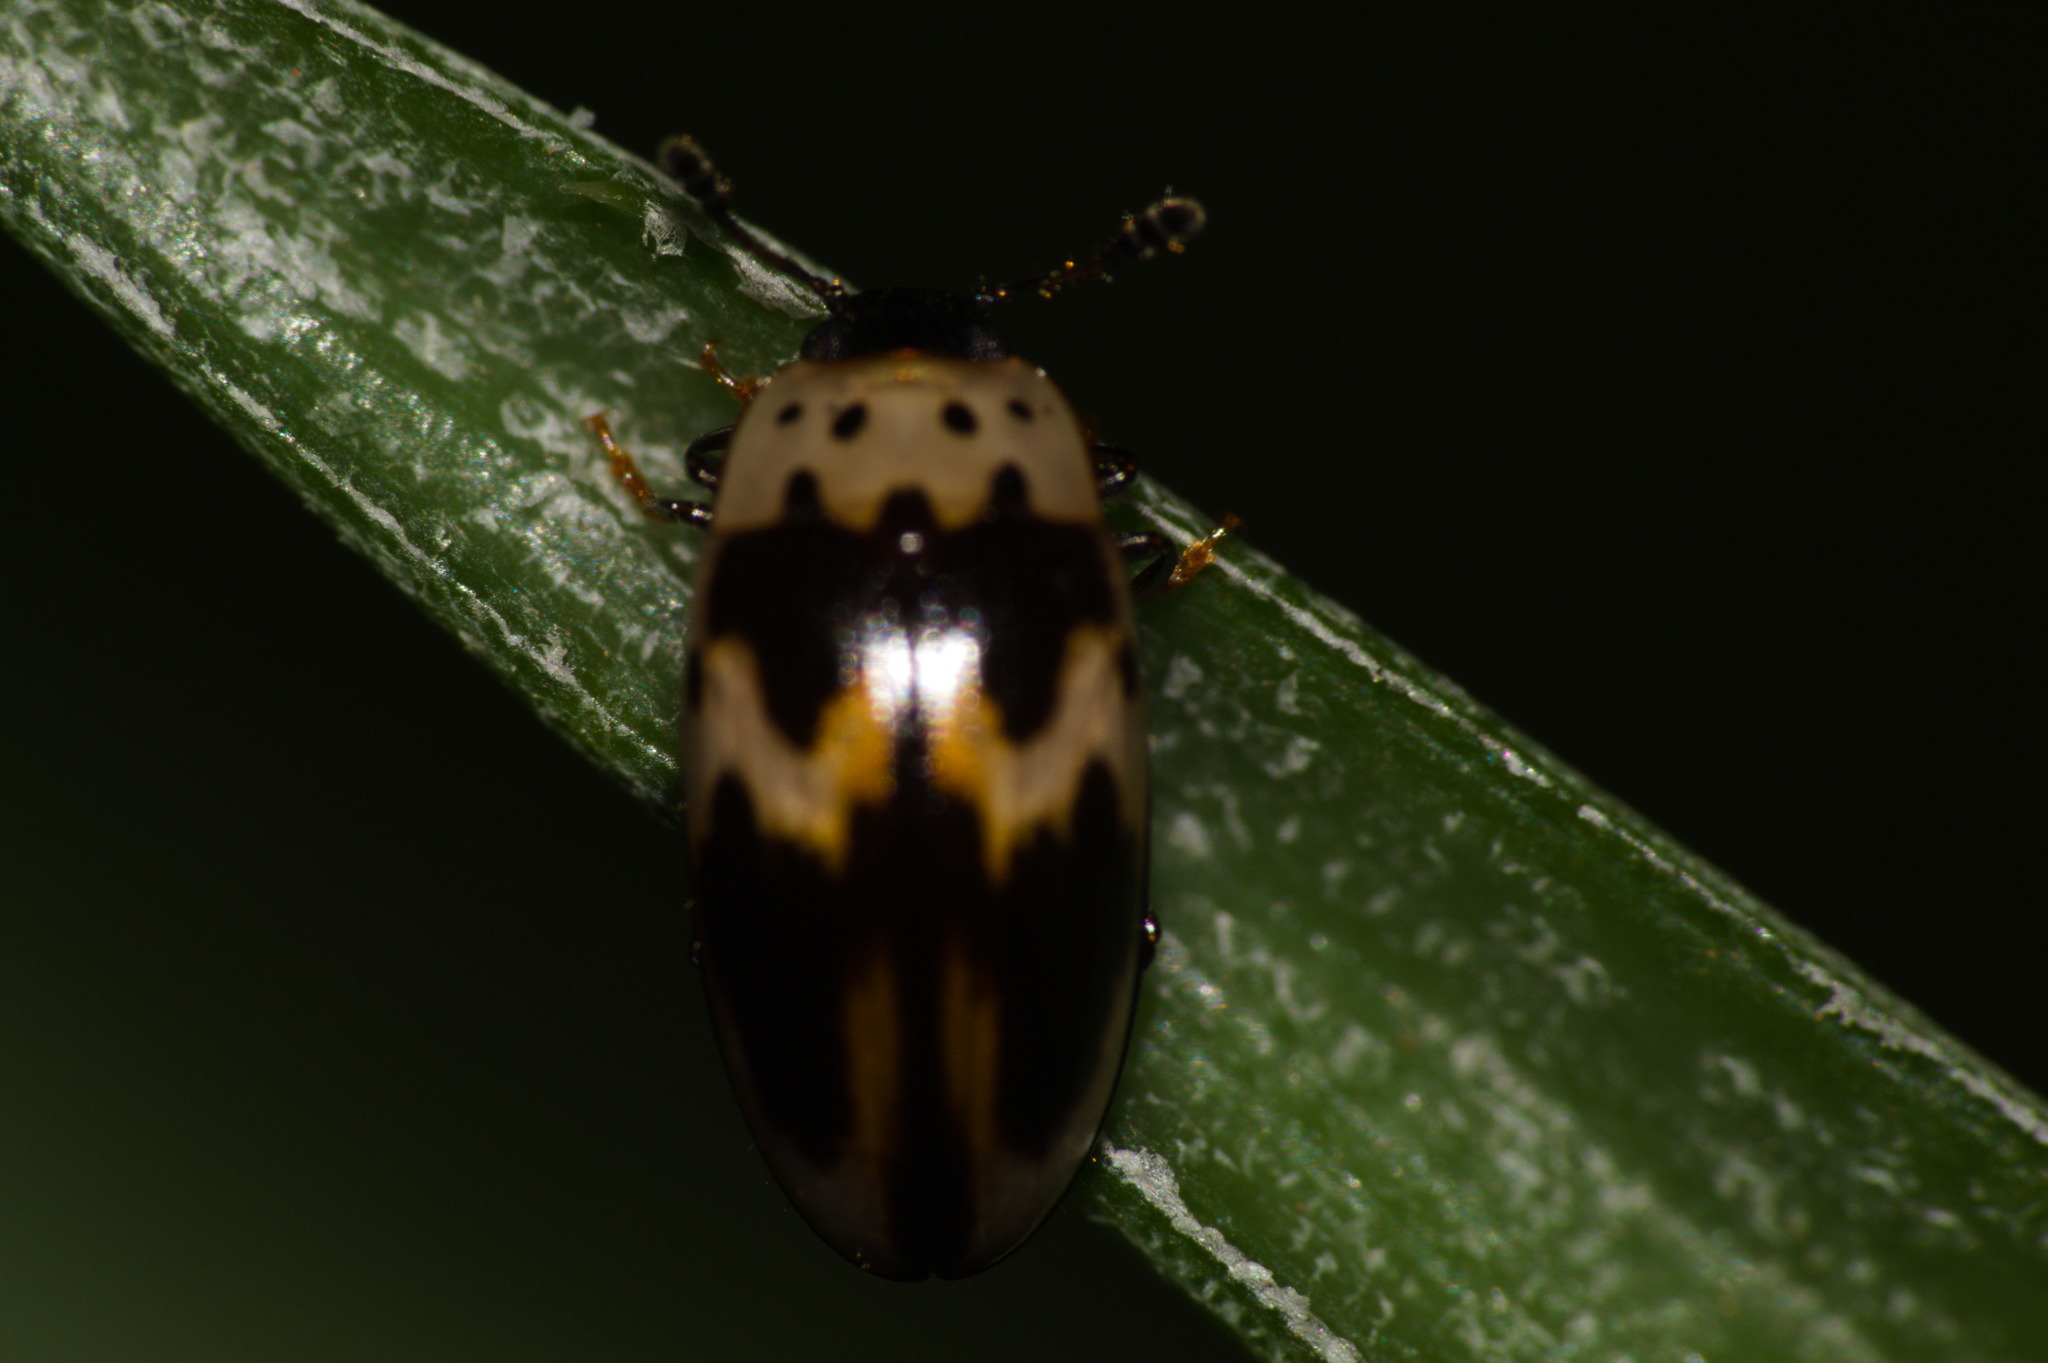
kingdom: Animalia
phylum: Arthropoda
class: Insecta
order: Coleoptera
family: Erotylidae
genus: Ischyrus
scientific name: Ischyrus
